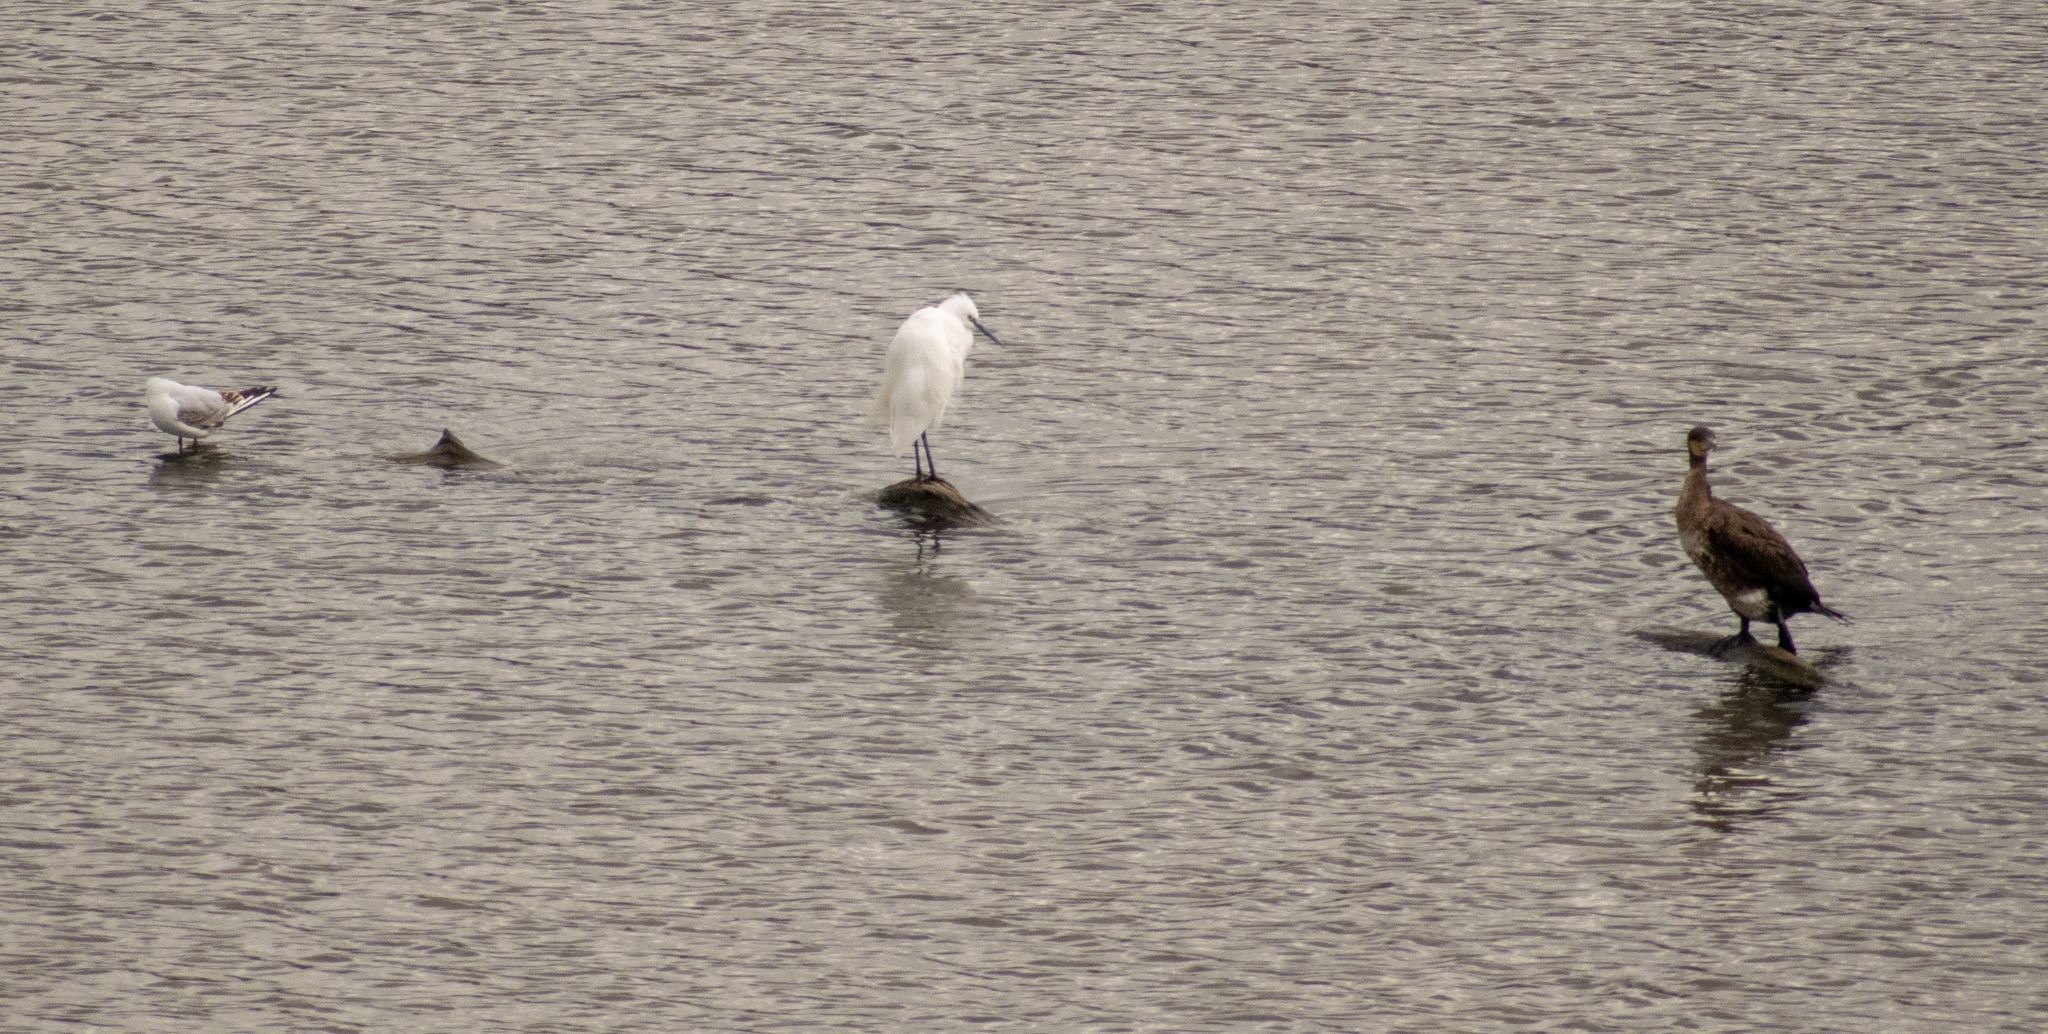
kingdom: Animalia
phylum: Chordata
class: Aves
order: Suliformes
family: Phalacrocoracidae
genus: Phalacrocorax
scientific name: Phalacrocorax carbo
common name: Great cormorant
